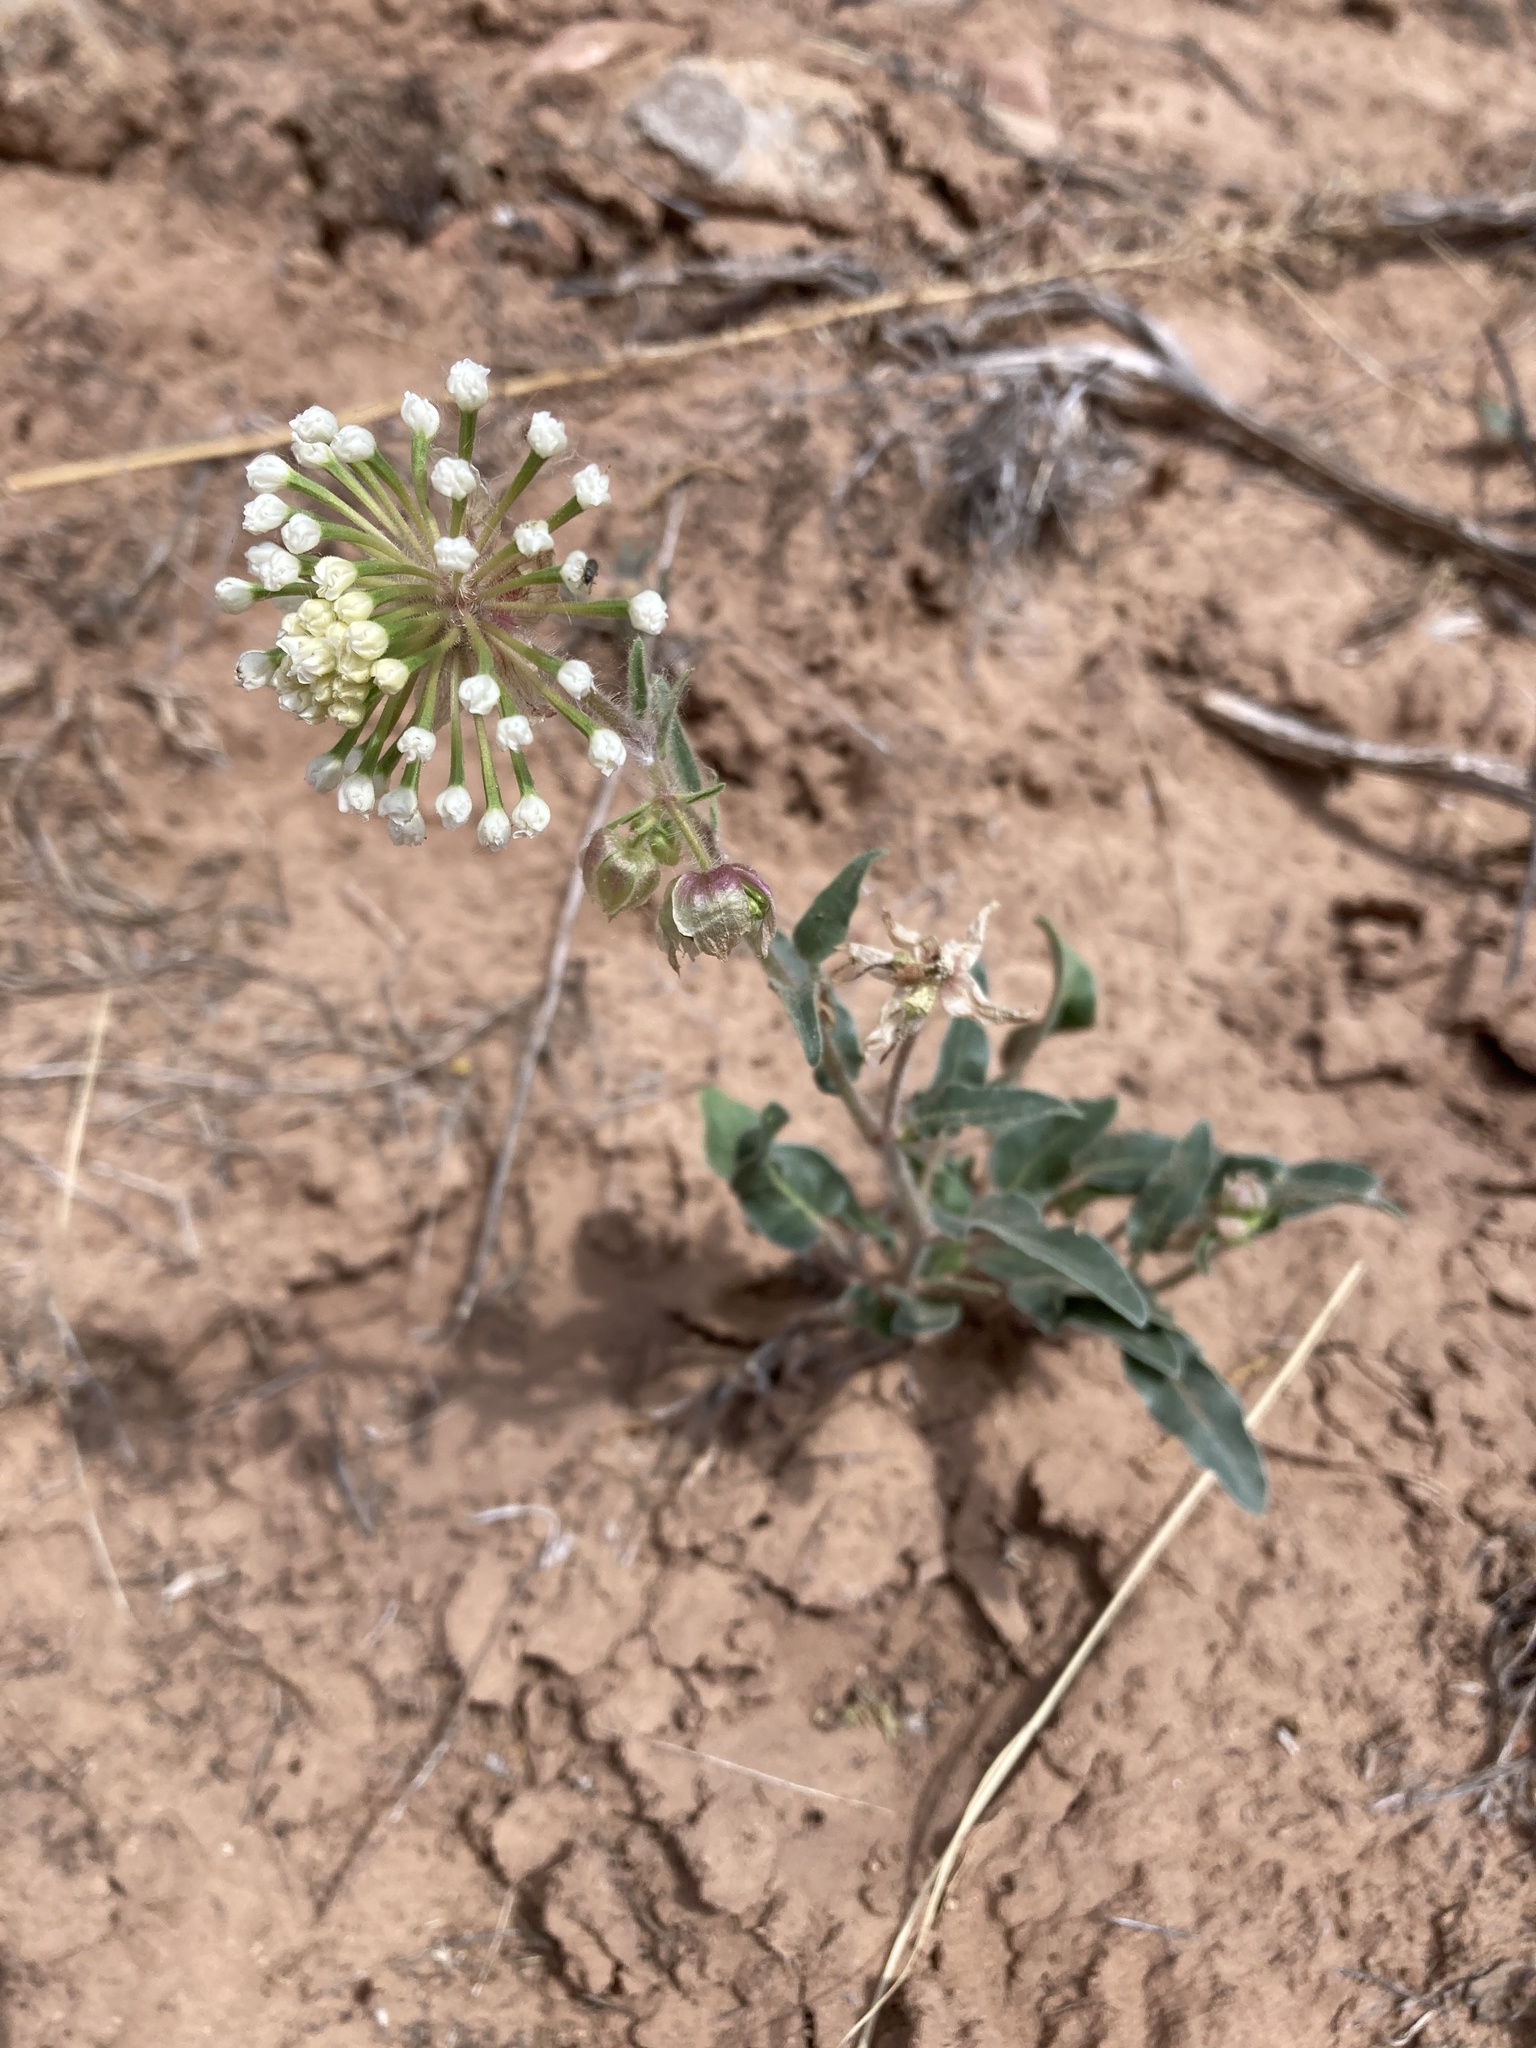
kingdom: Plantae
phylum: Tracheophyta
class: Magnoliopsida
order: Caryophyllales
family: Nyctaginaceae
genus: Abronia
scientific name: Abronia fragrans
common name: Fragrant sand-verbena
